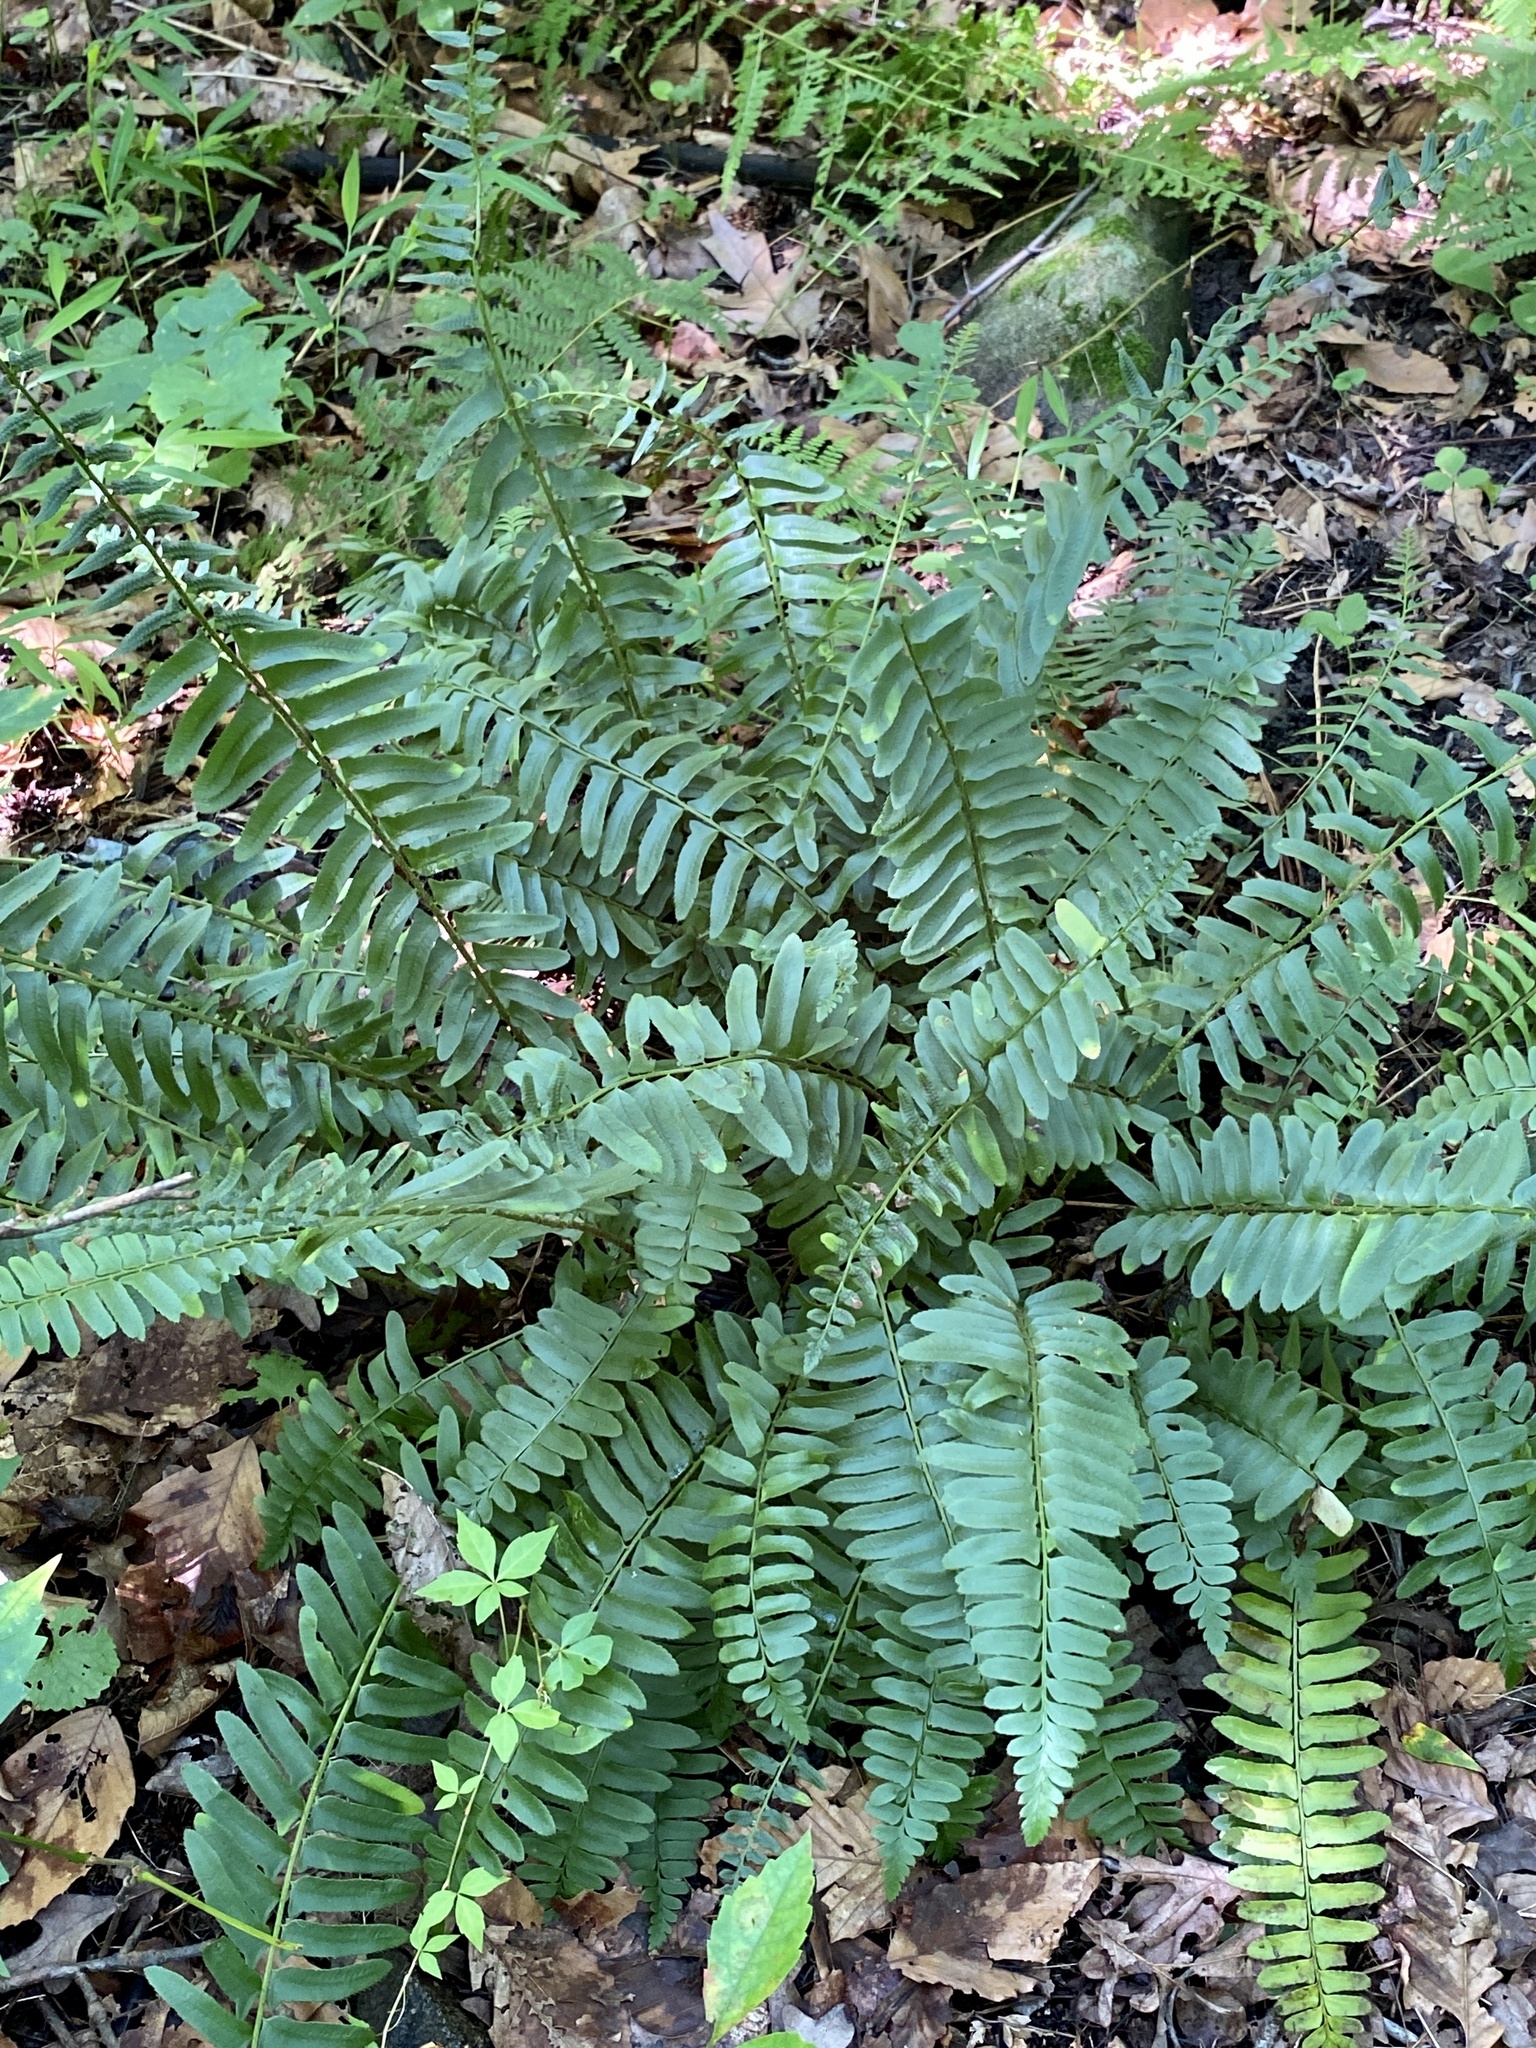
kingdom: Plantae
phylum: Tracheophyta
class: Polypodiopsida
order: Polypodiales
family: Dryopteridaceae
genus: Polystichum
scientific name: Polystichum acrostichoides
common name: Christmas fern
